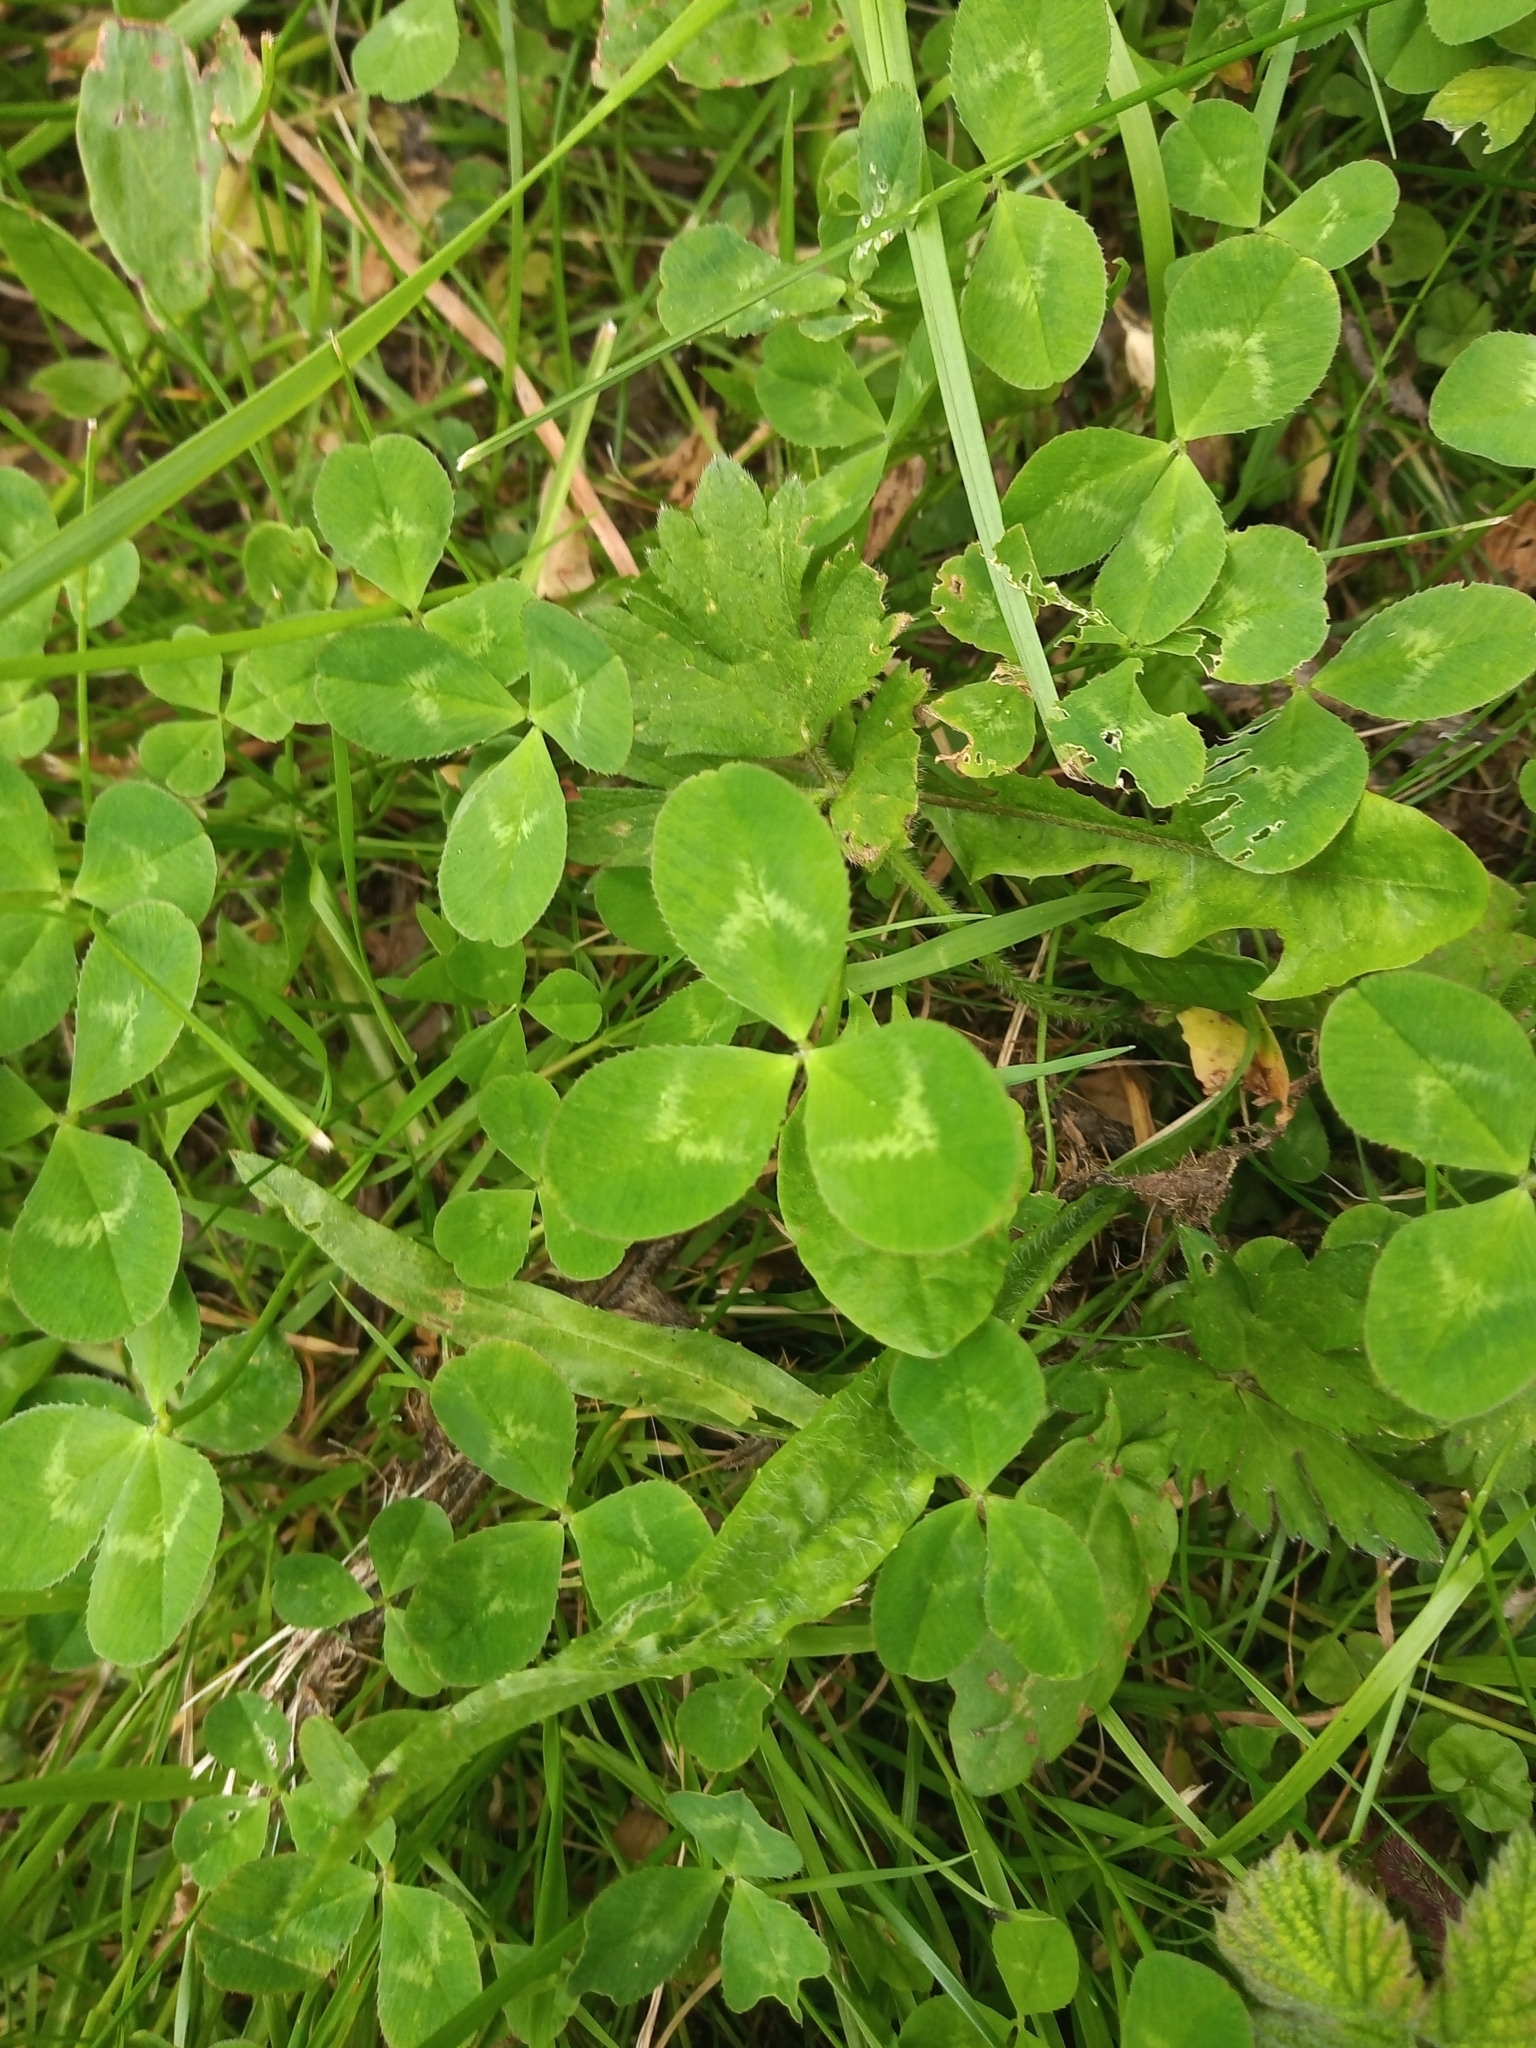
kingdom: Plantae
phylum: Tracheophyta
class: Magnoliopsida
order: Fabales
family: Fabaceae
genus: Trifolium
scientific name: Trifolium repens
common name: White clover
